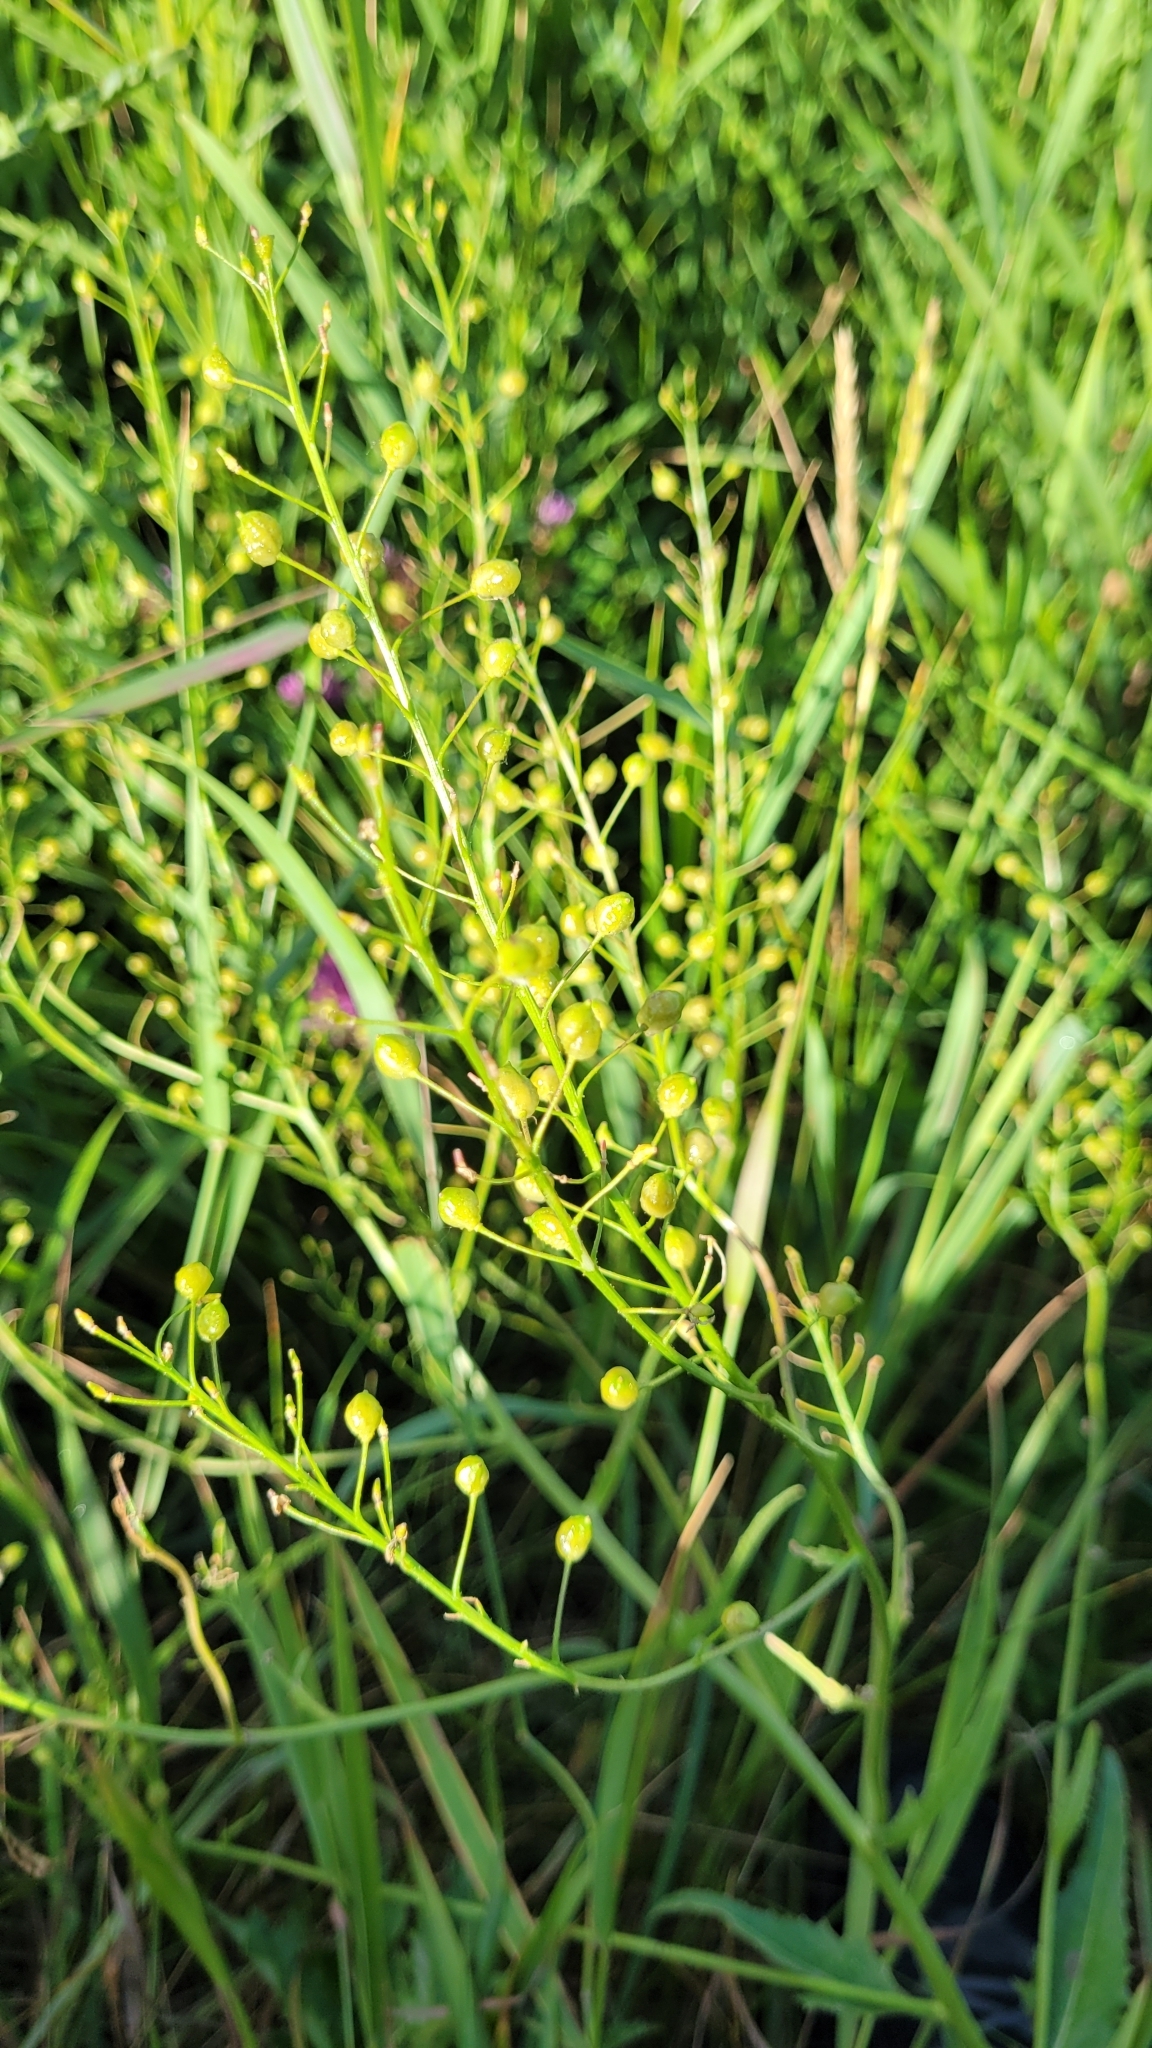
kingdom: Plantae
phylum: Tracheophyta
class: Magnoliopsida
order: Brassicales
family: Brassicaceae
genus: Bunias
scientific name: Bunias orientalis
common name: Warty-cabbage
